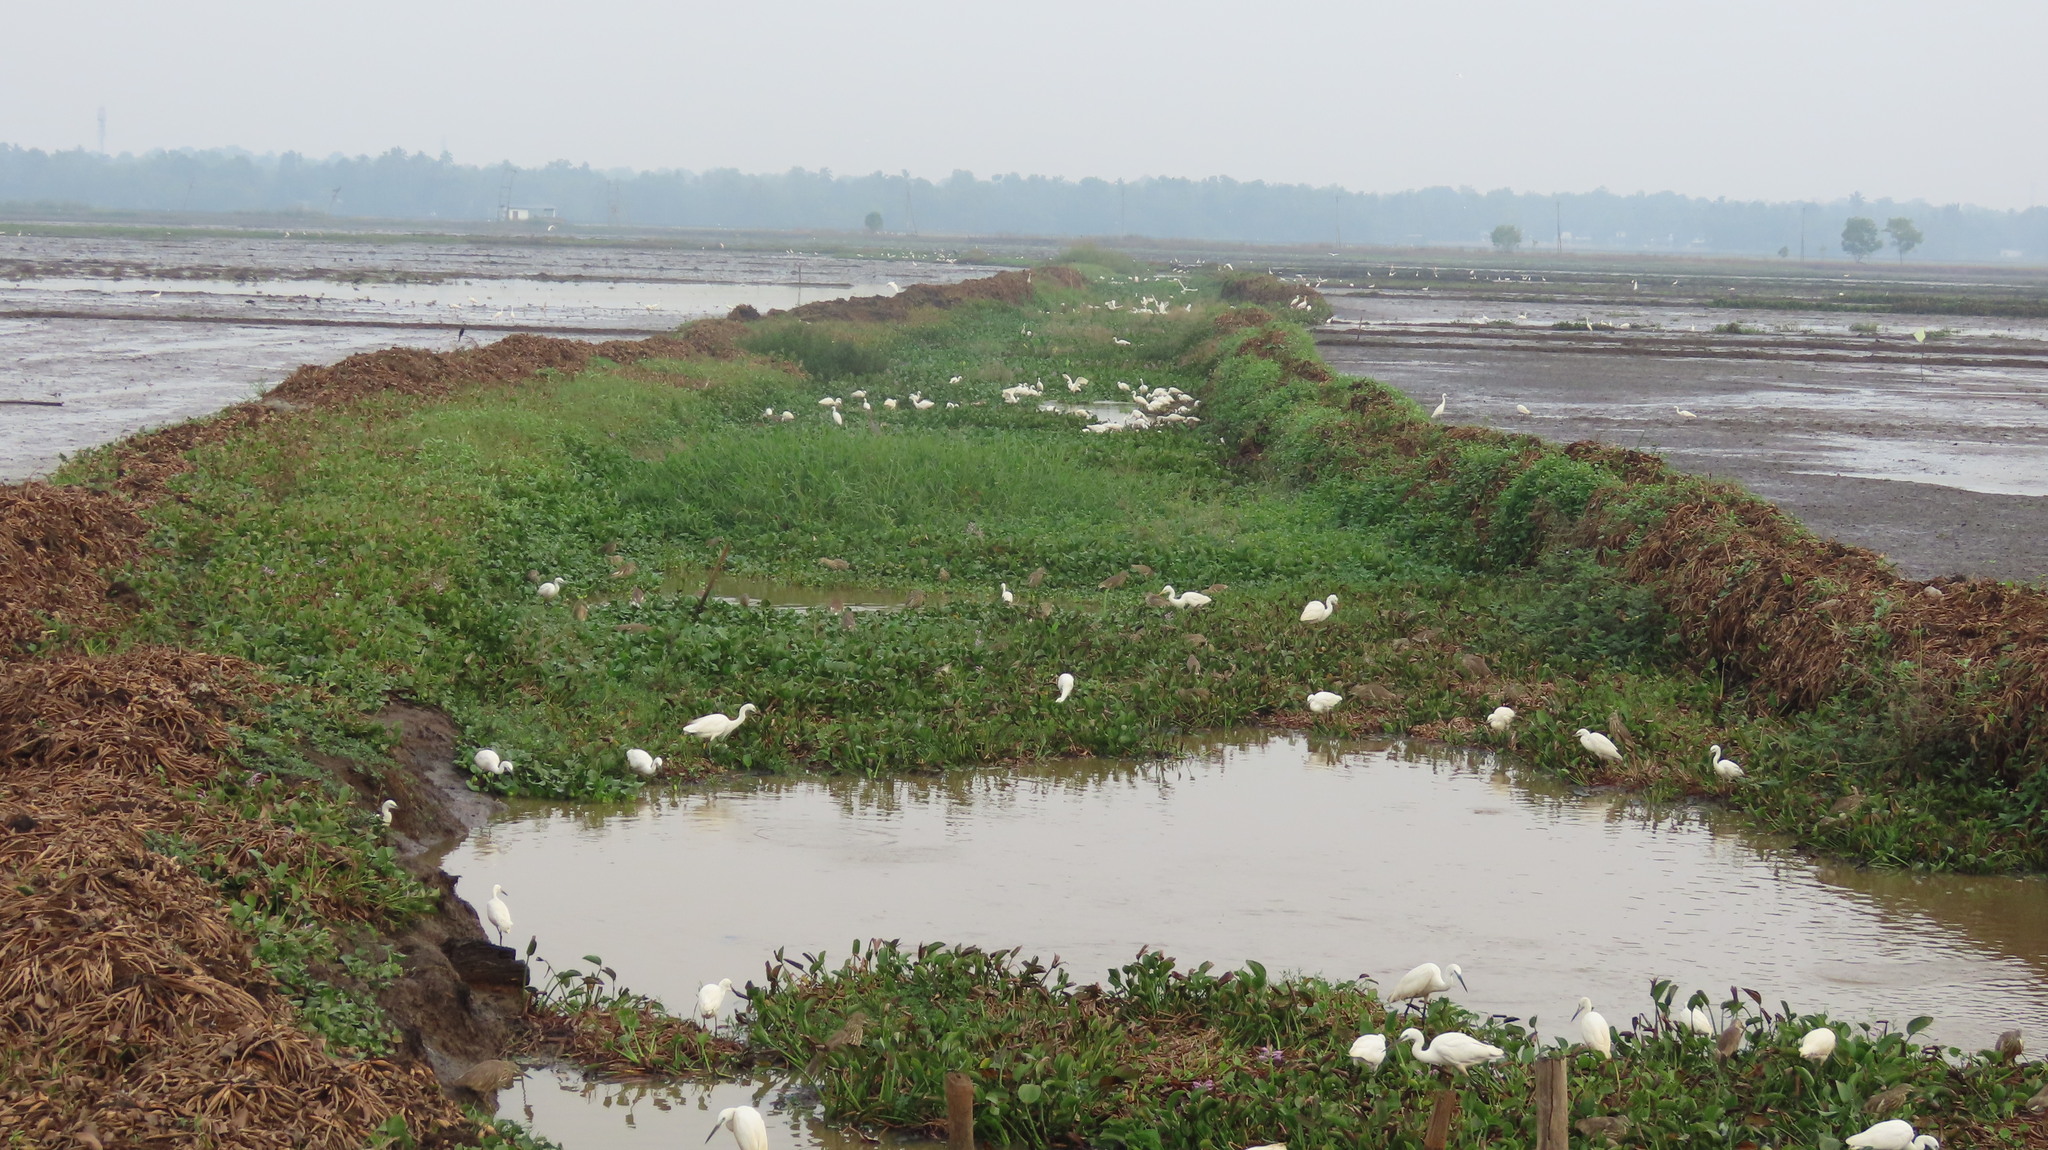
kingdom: Animalia
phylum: Chordata
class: Aves
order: Pelecaniformes
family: Ardeidae
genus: Ardeola
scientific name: Ardeola grayii
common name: Indian pond heron
